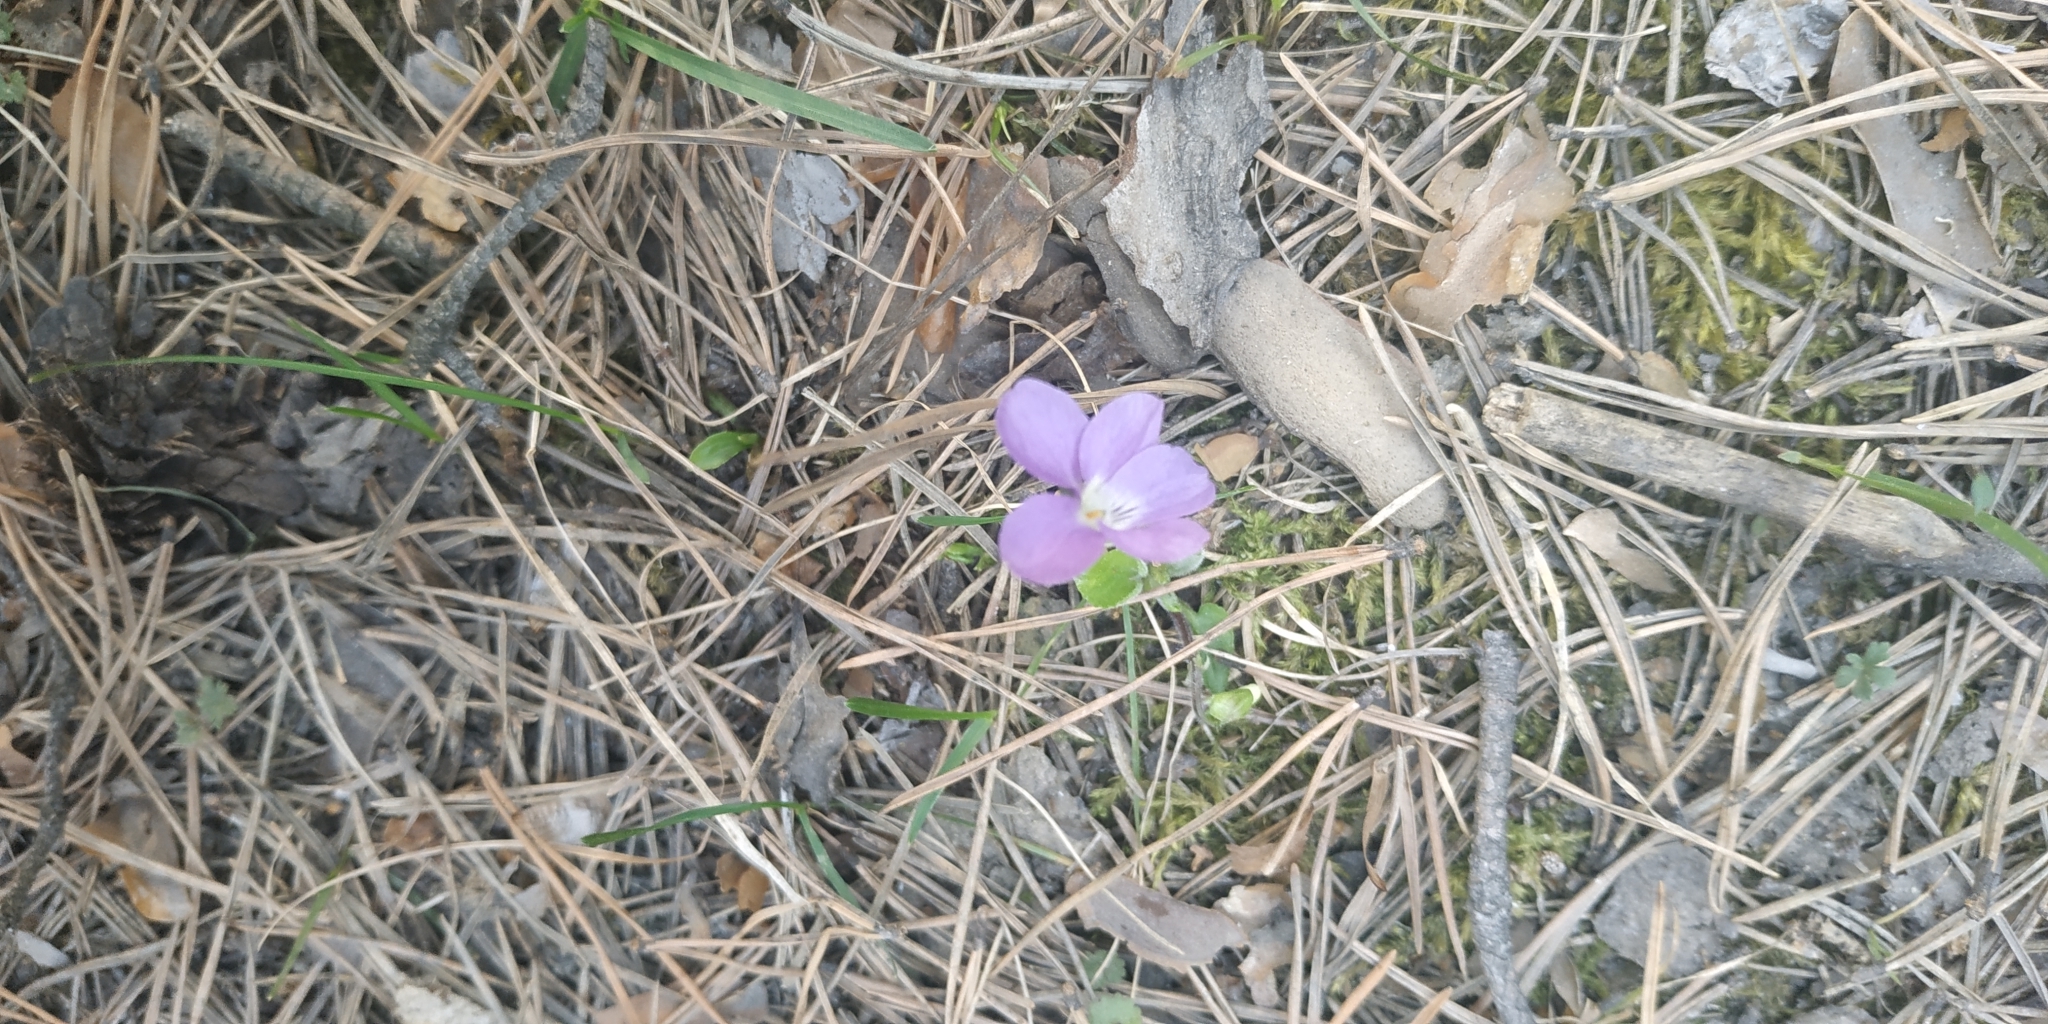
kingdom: Plantae
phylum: Tracheophyta
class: Magnoliopsida
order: Malpighiales
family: Violaceae
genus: Viola
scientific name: Viola hirta
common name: Hairy violet
